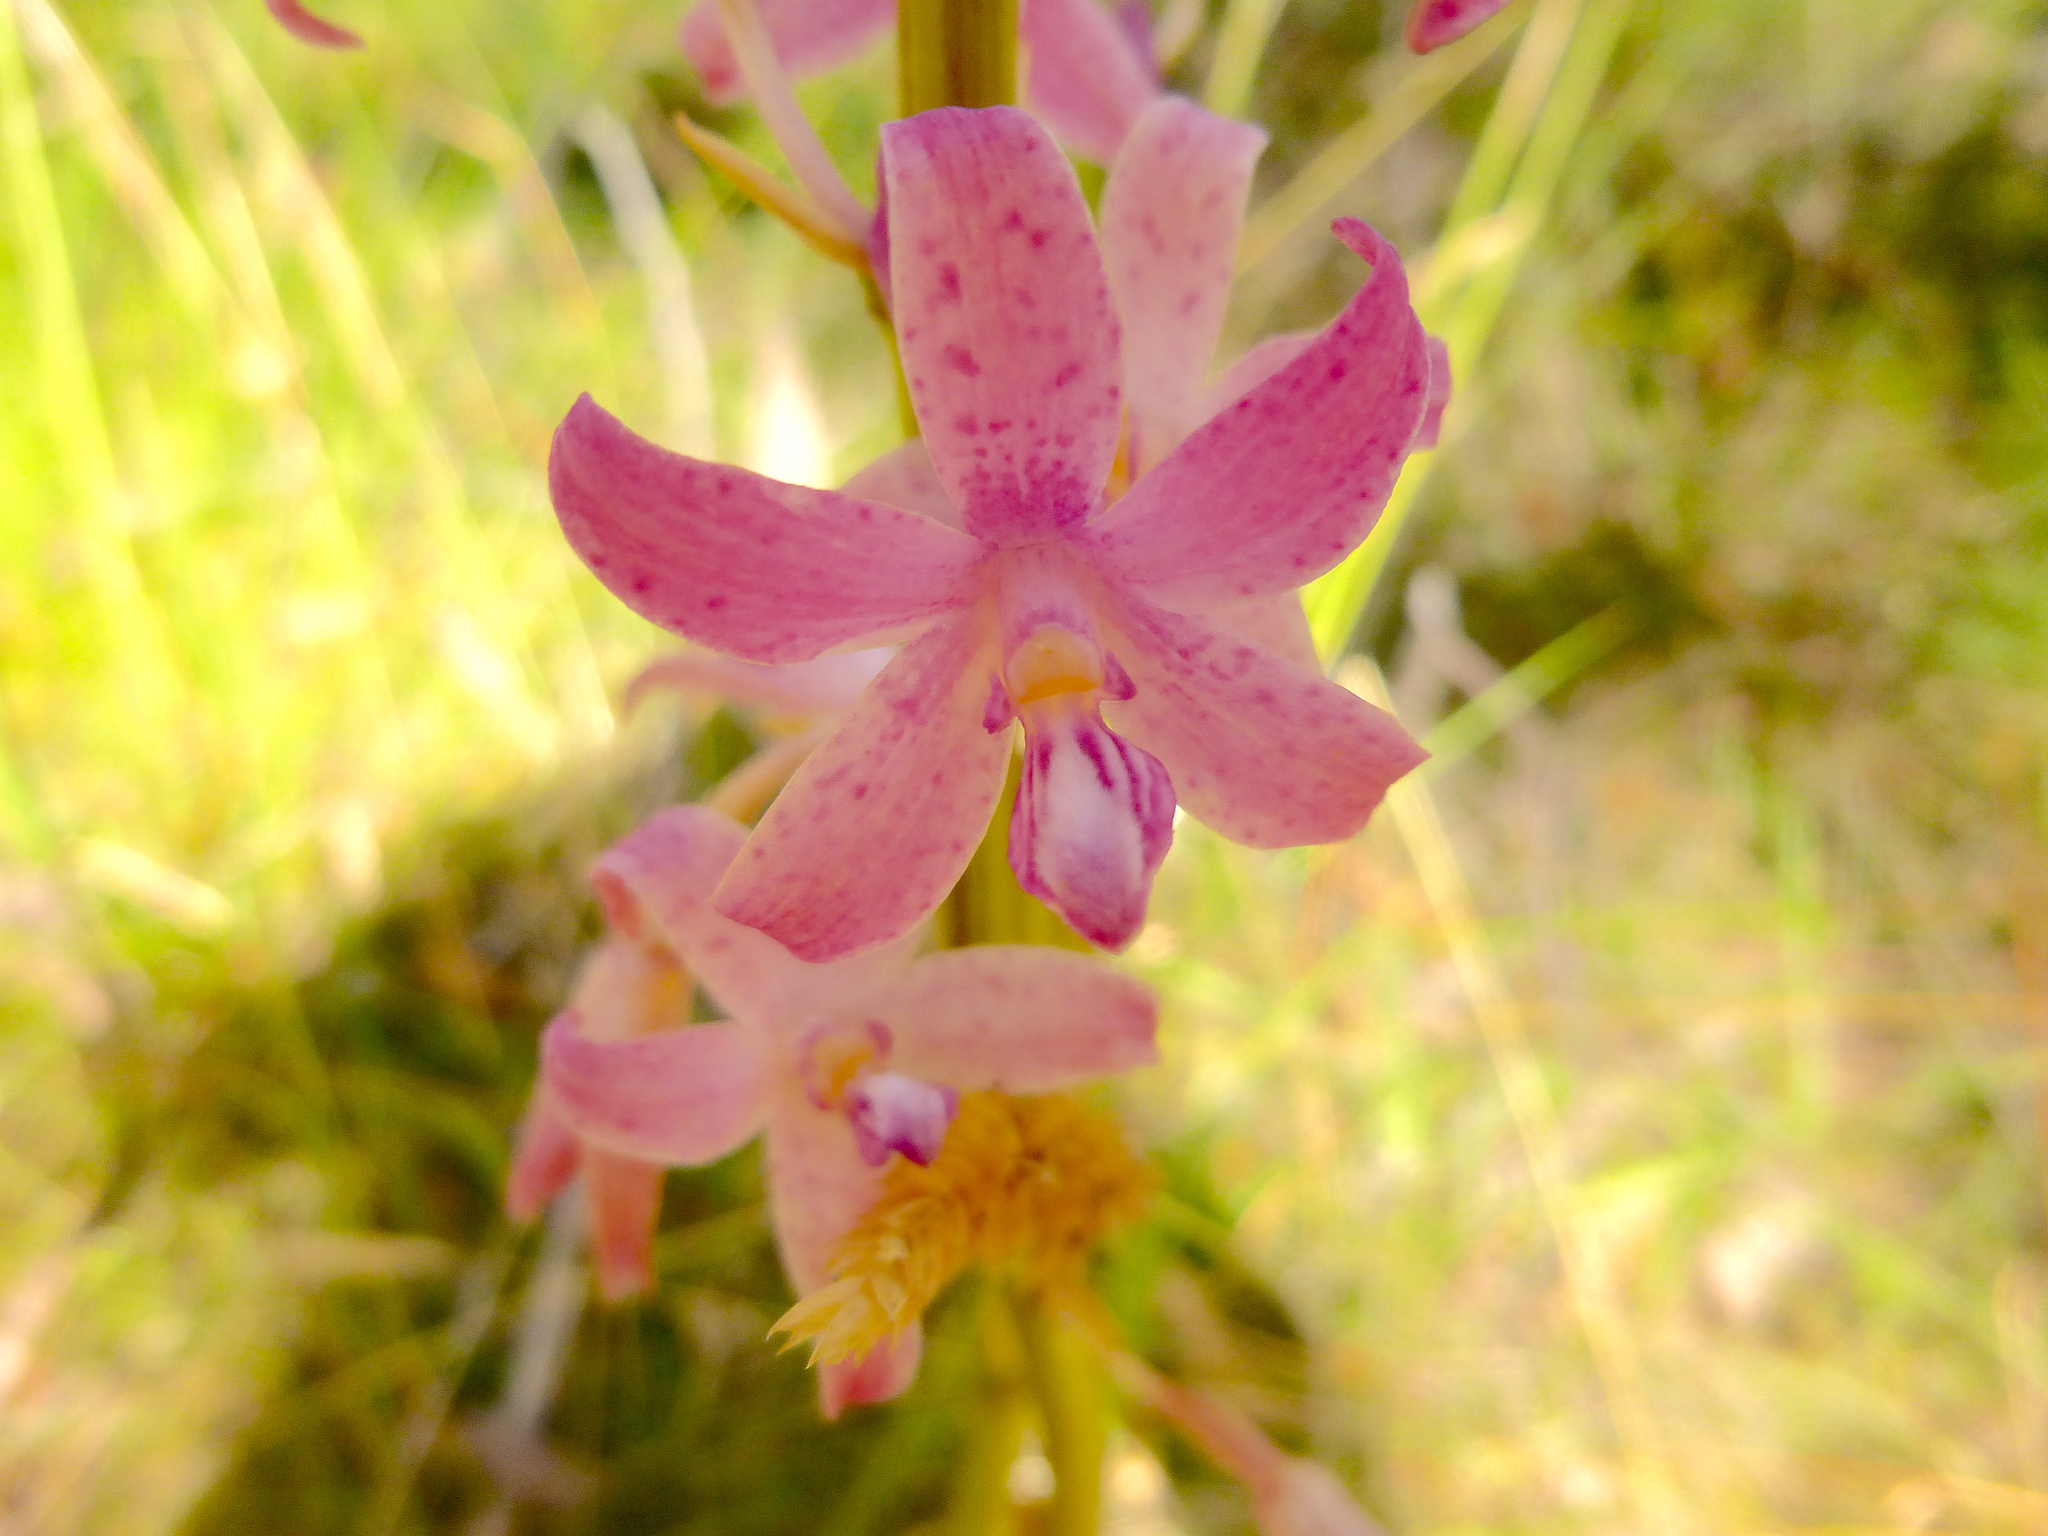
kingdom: Plantae
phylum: Tracheophyta
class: Liliopsida
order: Asparagales
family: Orchidaceae
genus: Dipodium
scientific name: Dipodium roseum
